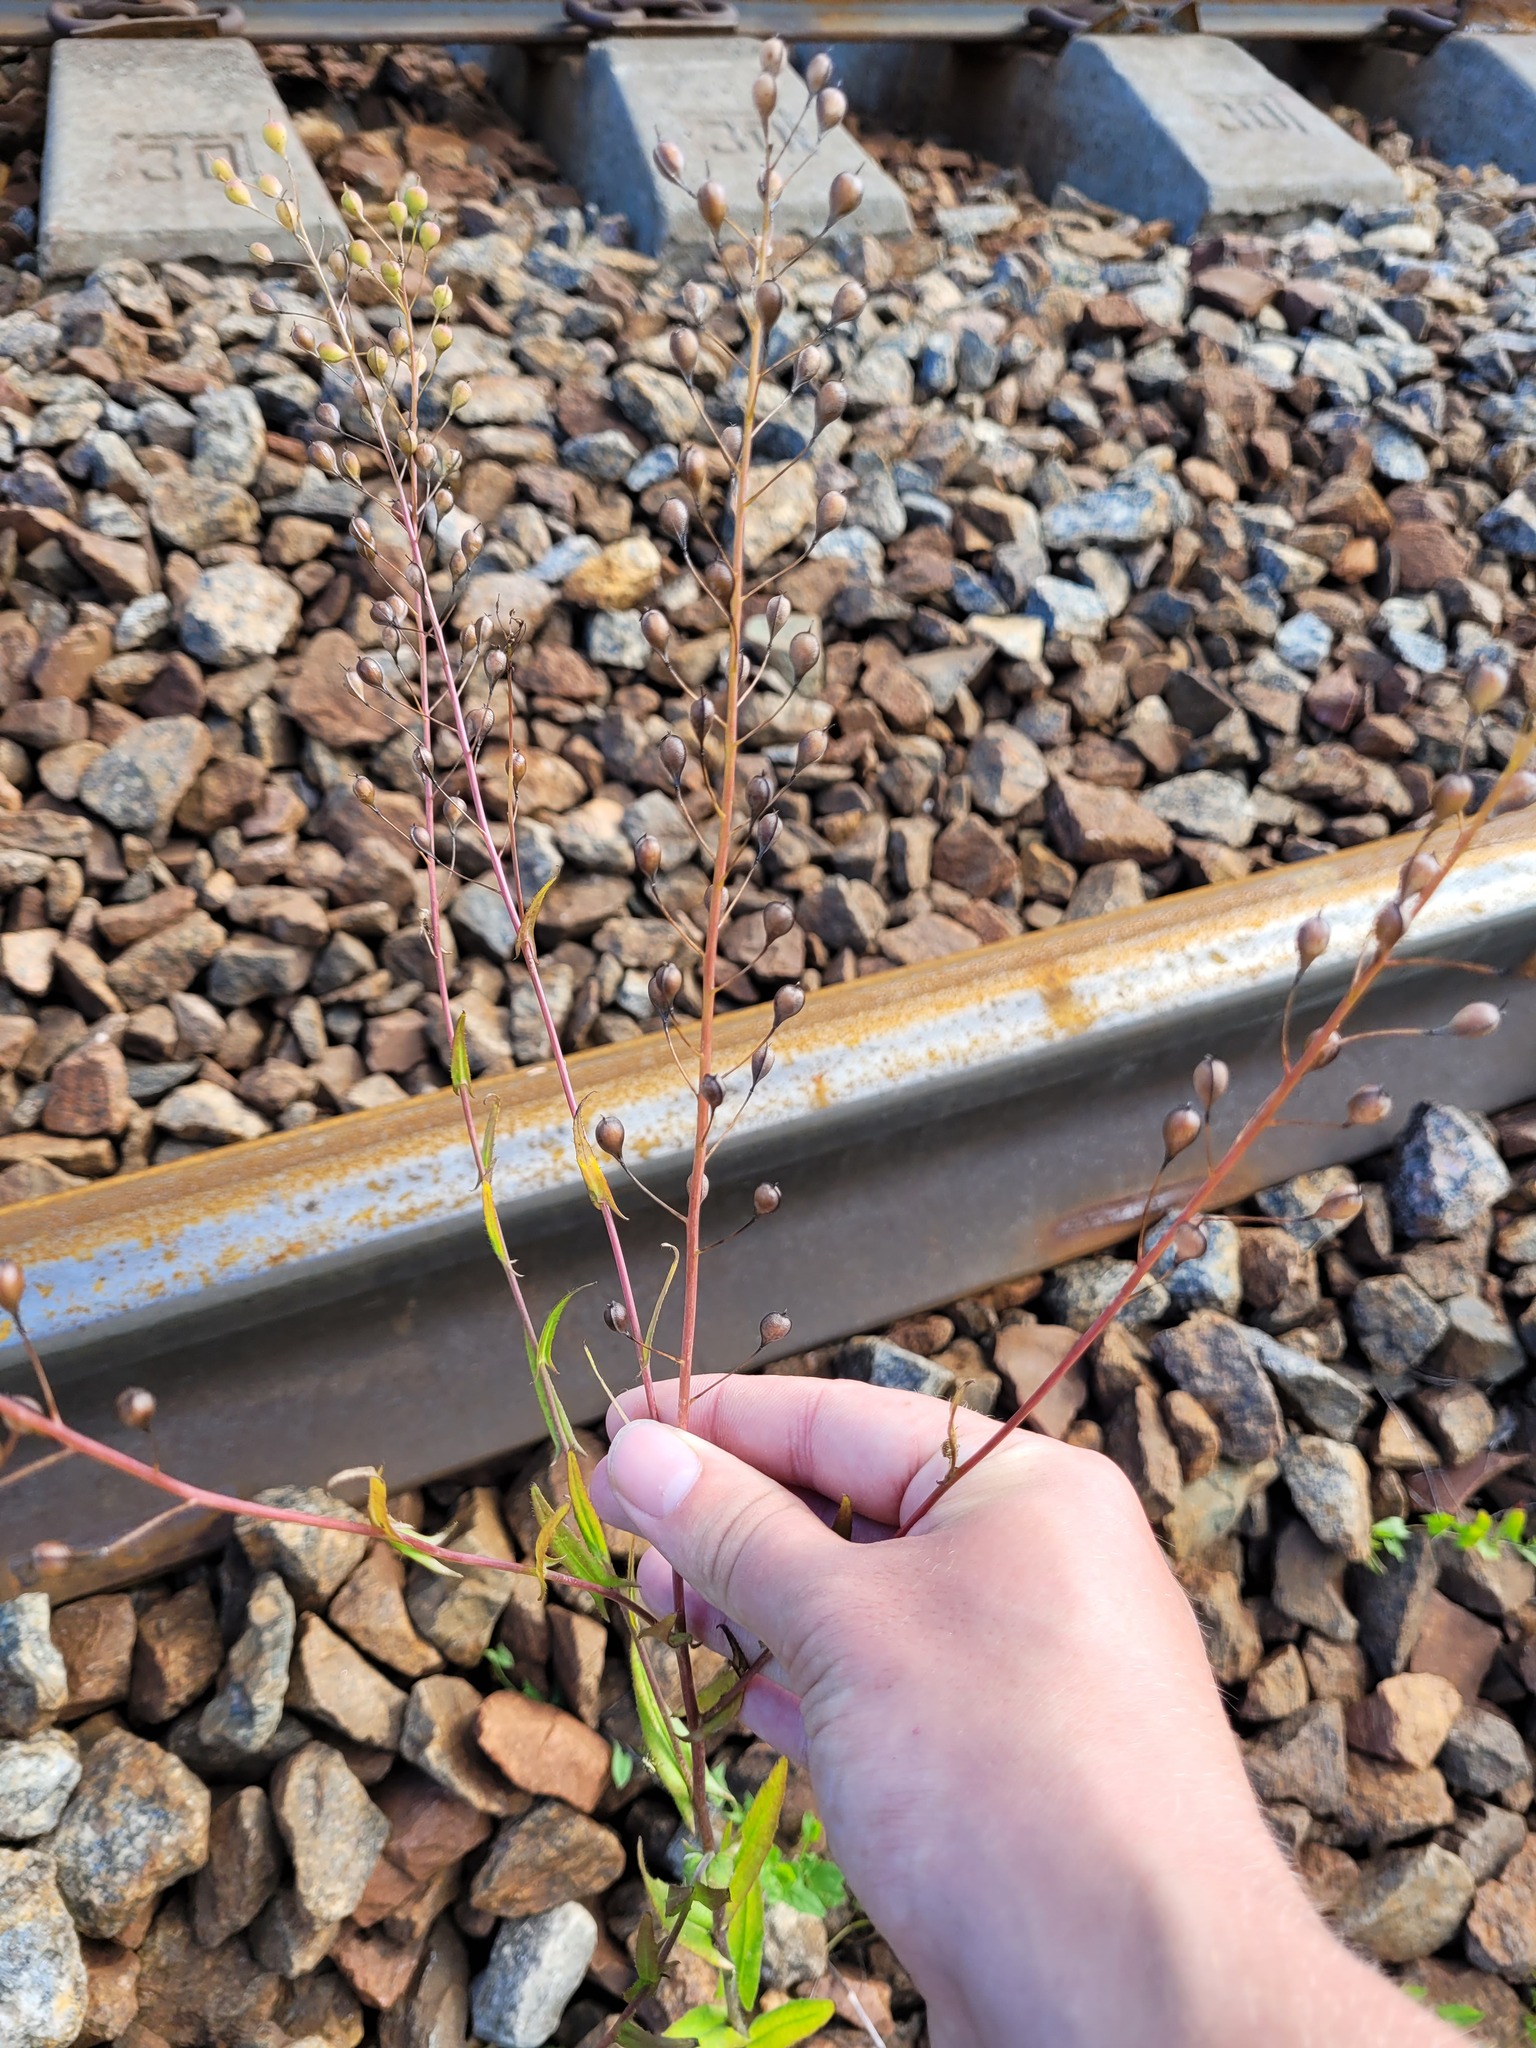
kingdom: Plantae
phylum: Tracheophyta
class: Magnoliopsida
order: Brassicales
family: Brassicaceae
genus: Camelina
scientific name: Camelina sativa
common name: Gold-of-pleasure
